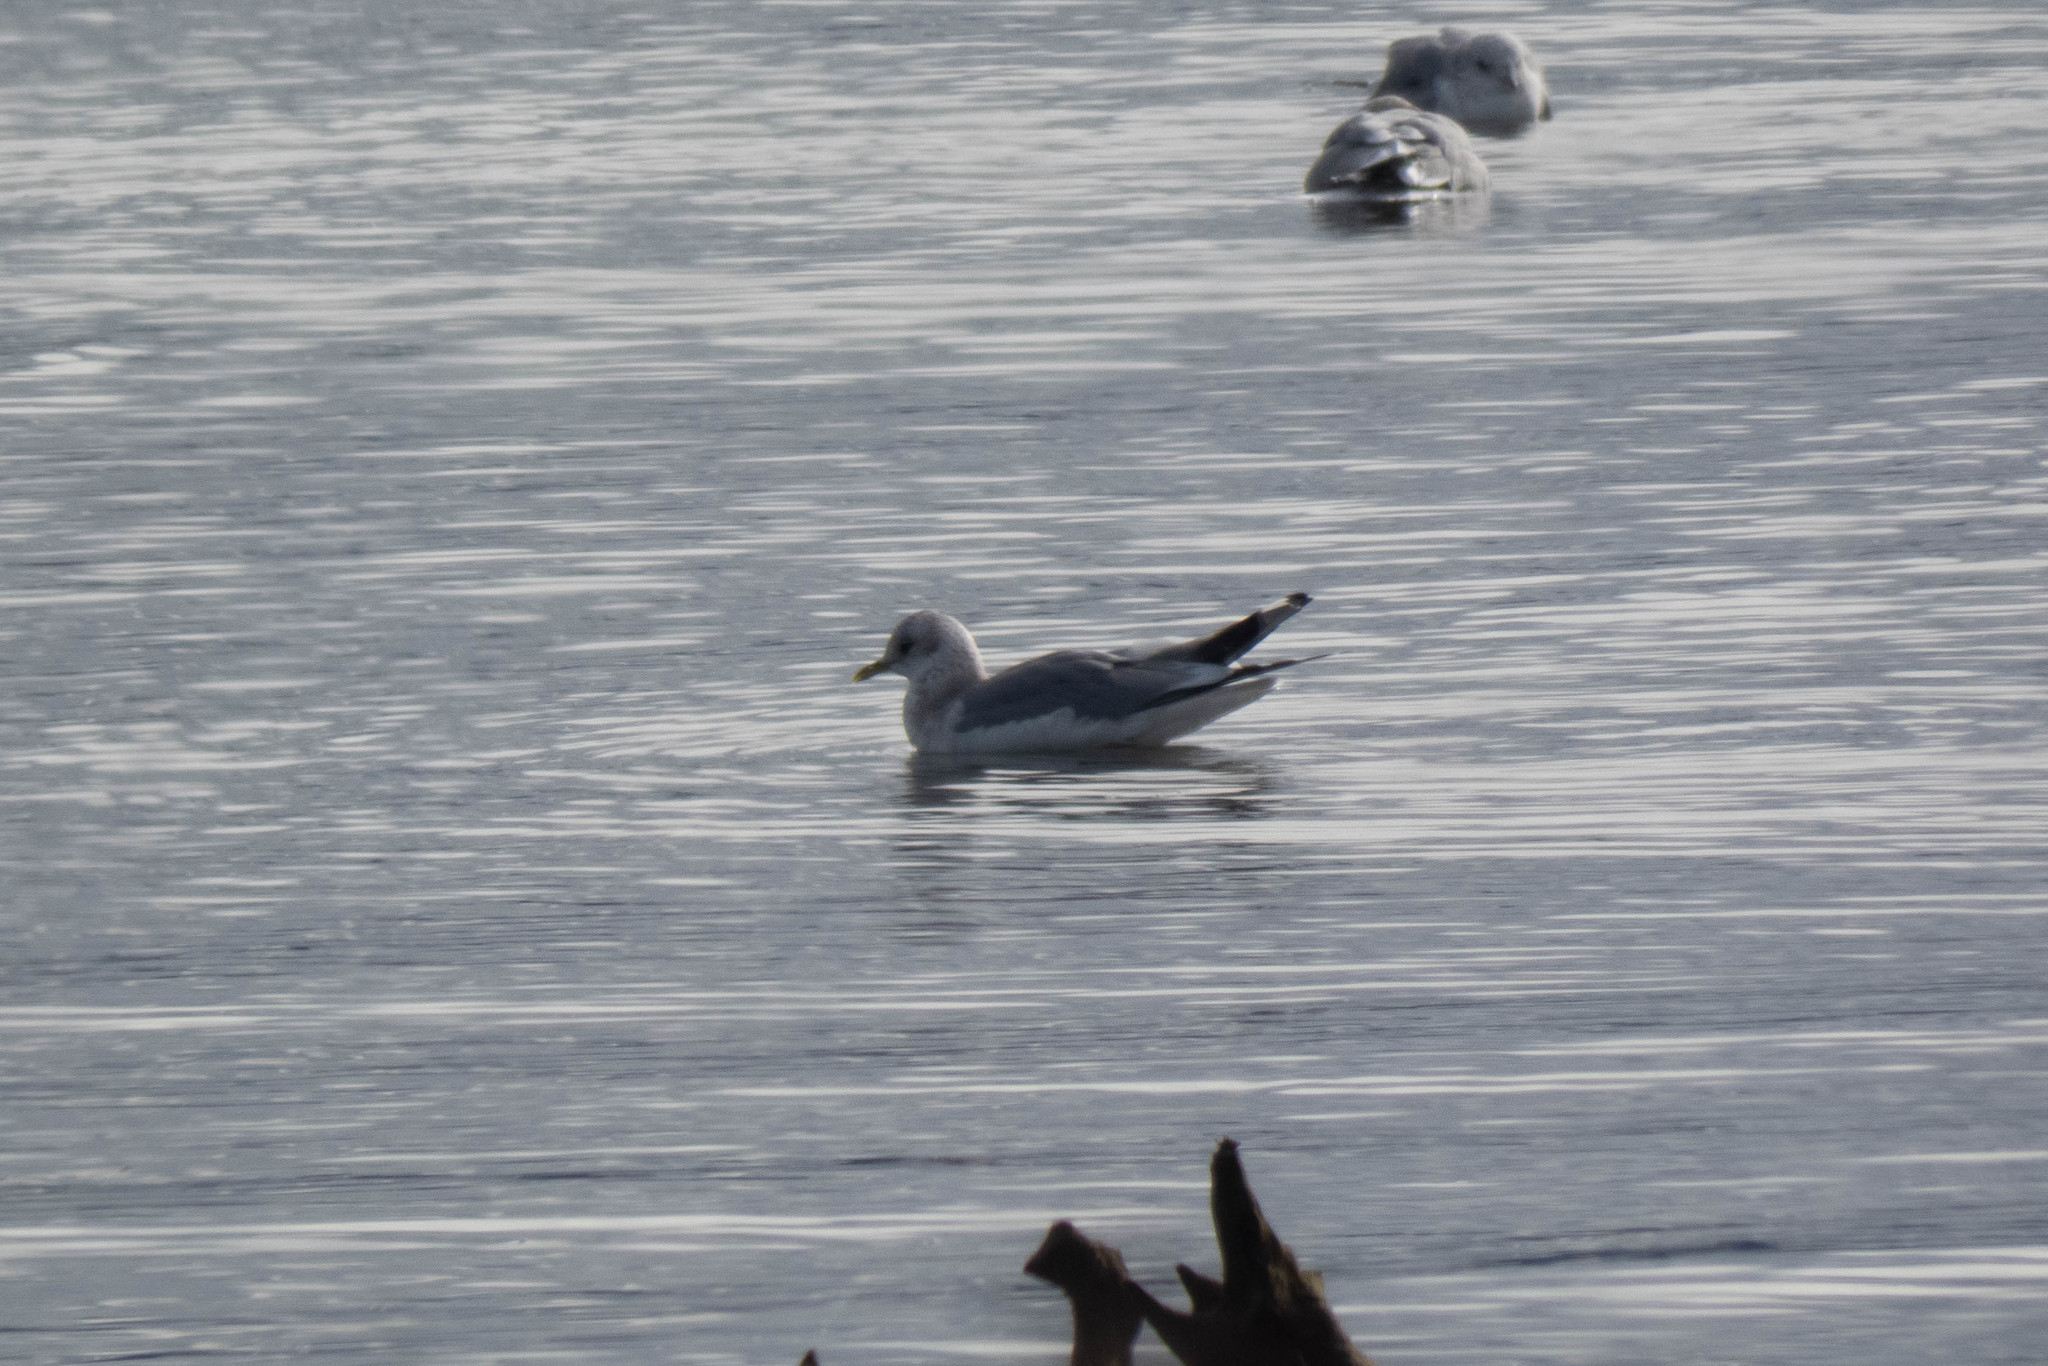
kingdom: Animalia
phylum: Chordata
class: Aves
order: Charadriiformes
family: Laridae
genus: Larus
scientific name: Larus brachyrhynchus
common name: Short-billed gull
